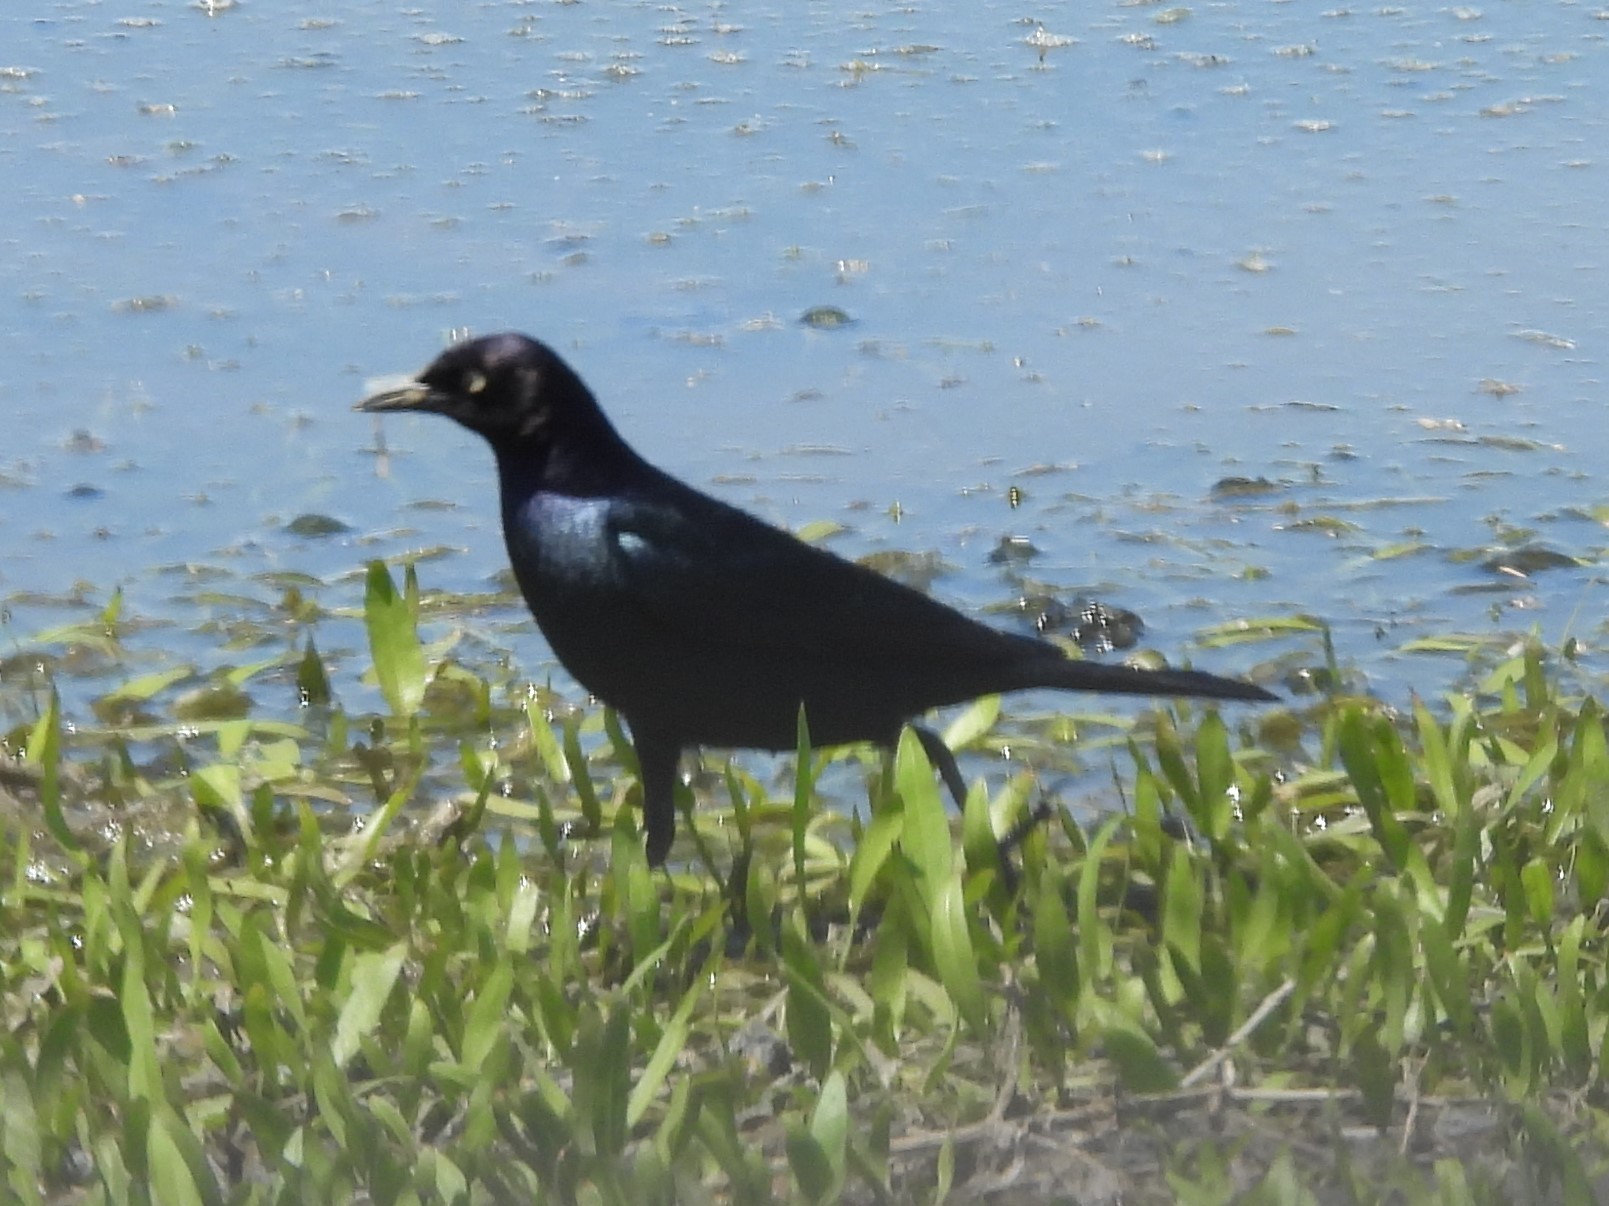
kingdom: Animalia
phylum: Chordata
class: Aves
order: Passeriformes
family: Icteridae
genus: Euphagus
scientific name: Euphagus cyanocephalus
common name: Brewer's blackbird
